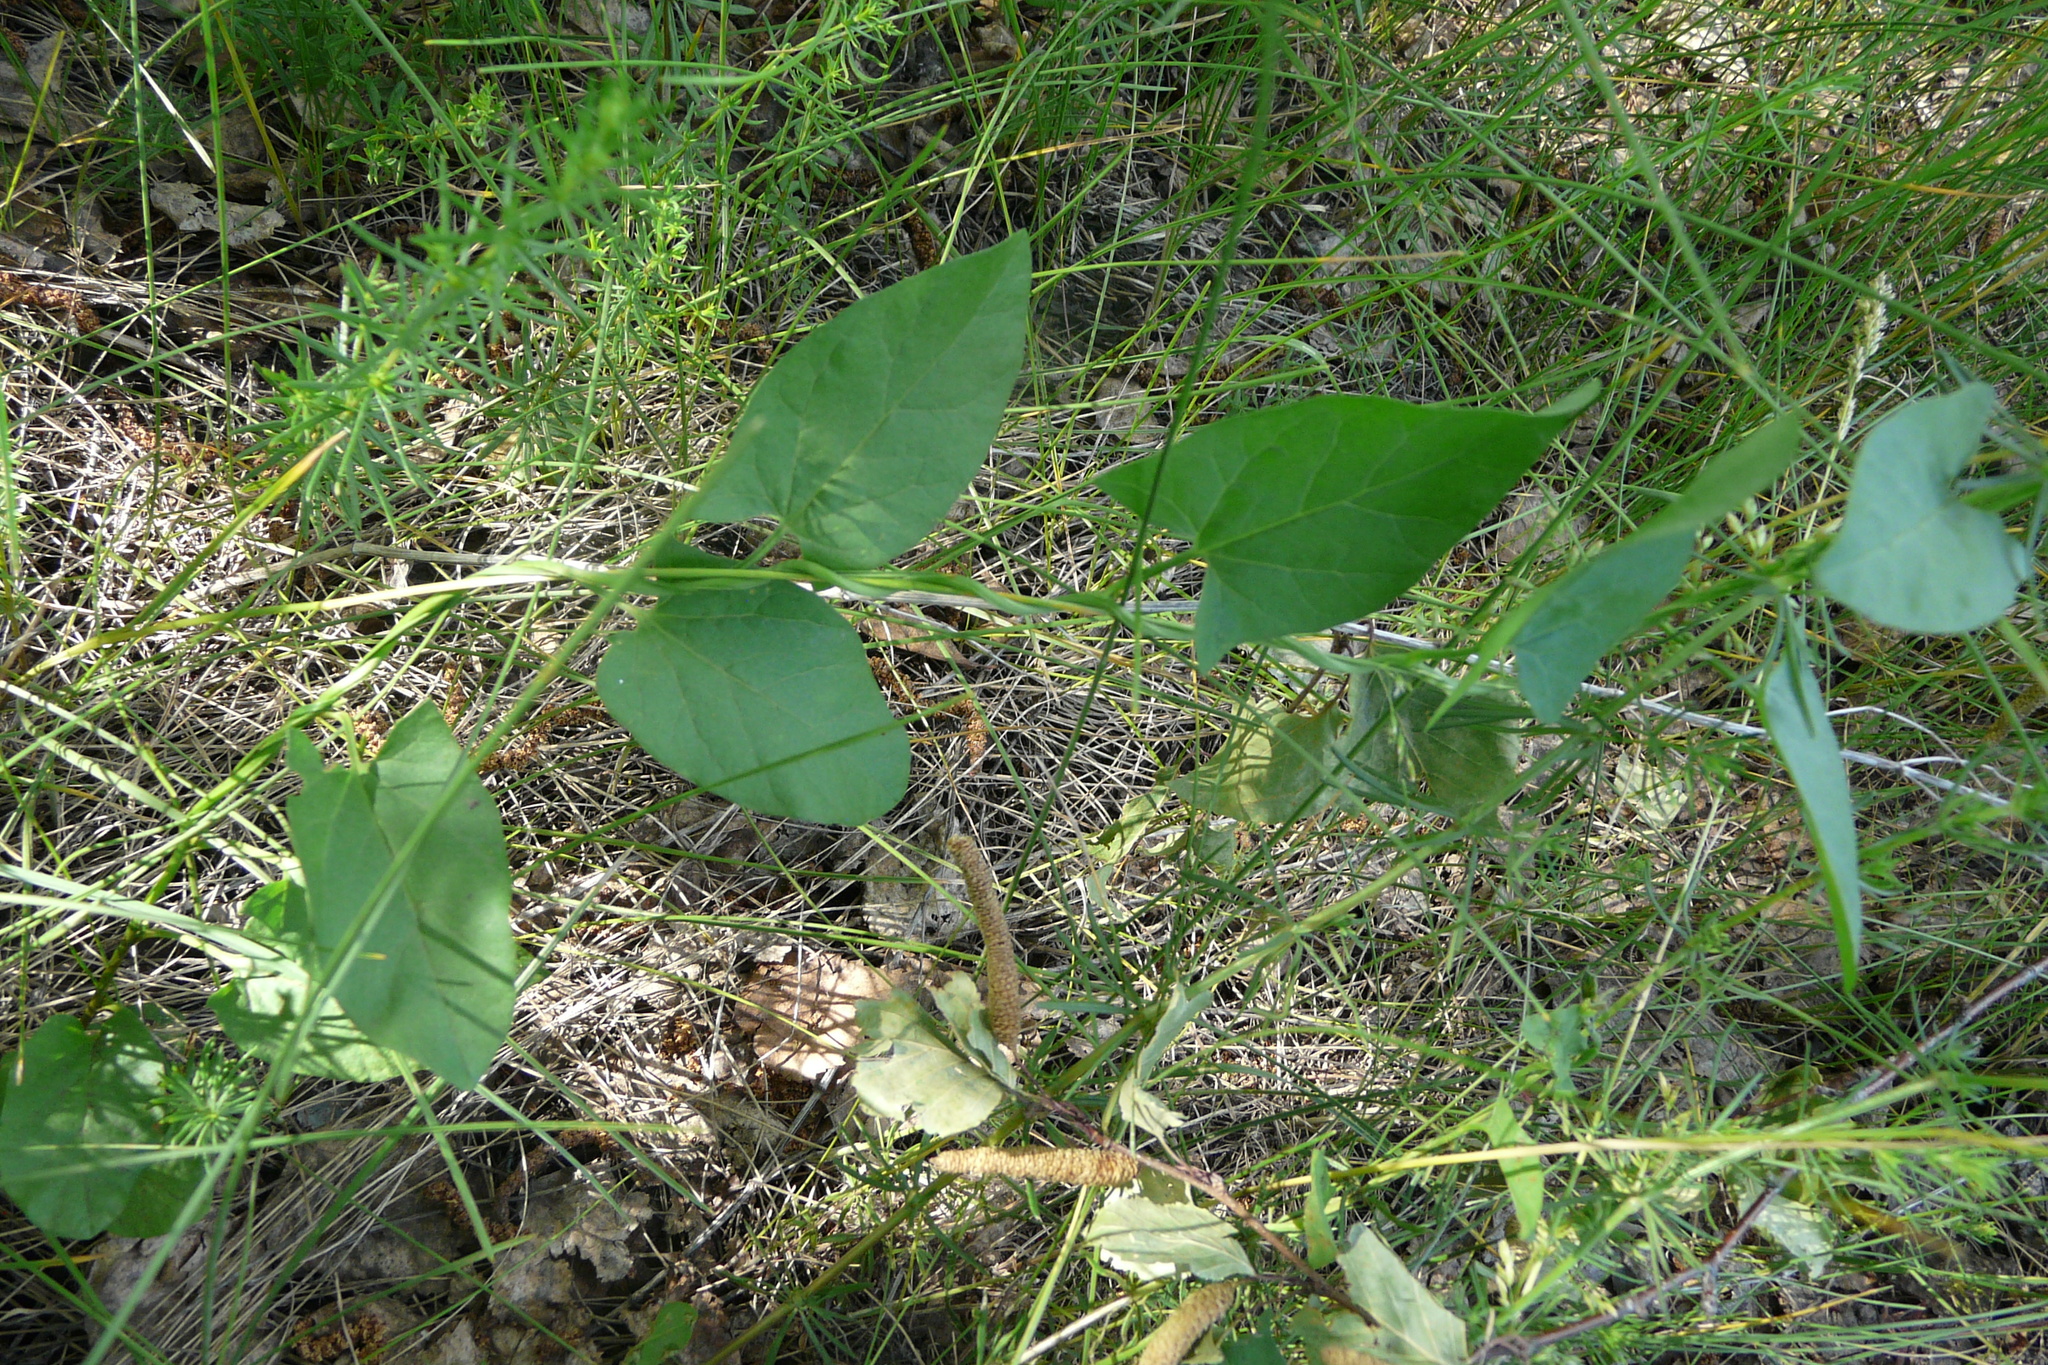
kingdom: Plantae
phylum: Tracheophyta
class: Magnoliopsida
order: Solanales
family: Convolvulaceae
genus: Convolvulus
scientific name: Convolvulus arvensis
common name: Field bindweed
